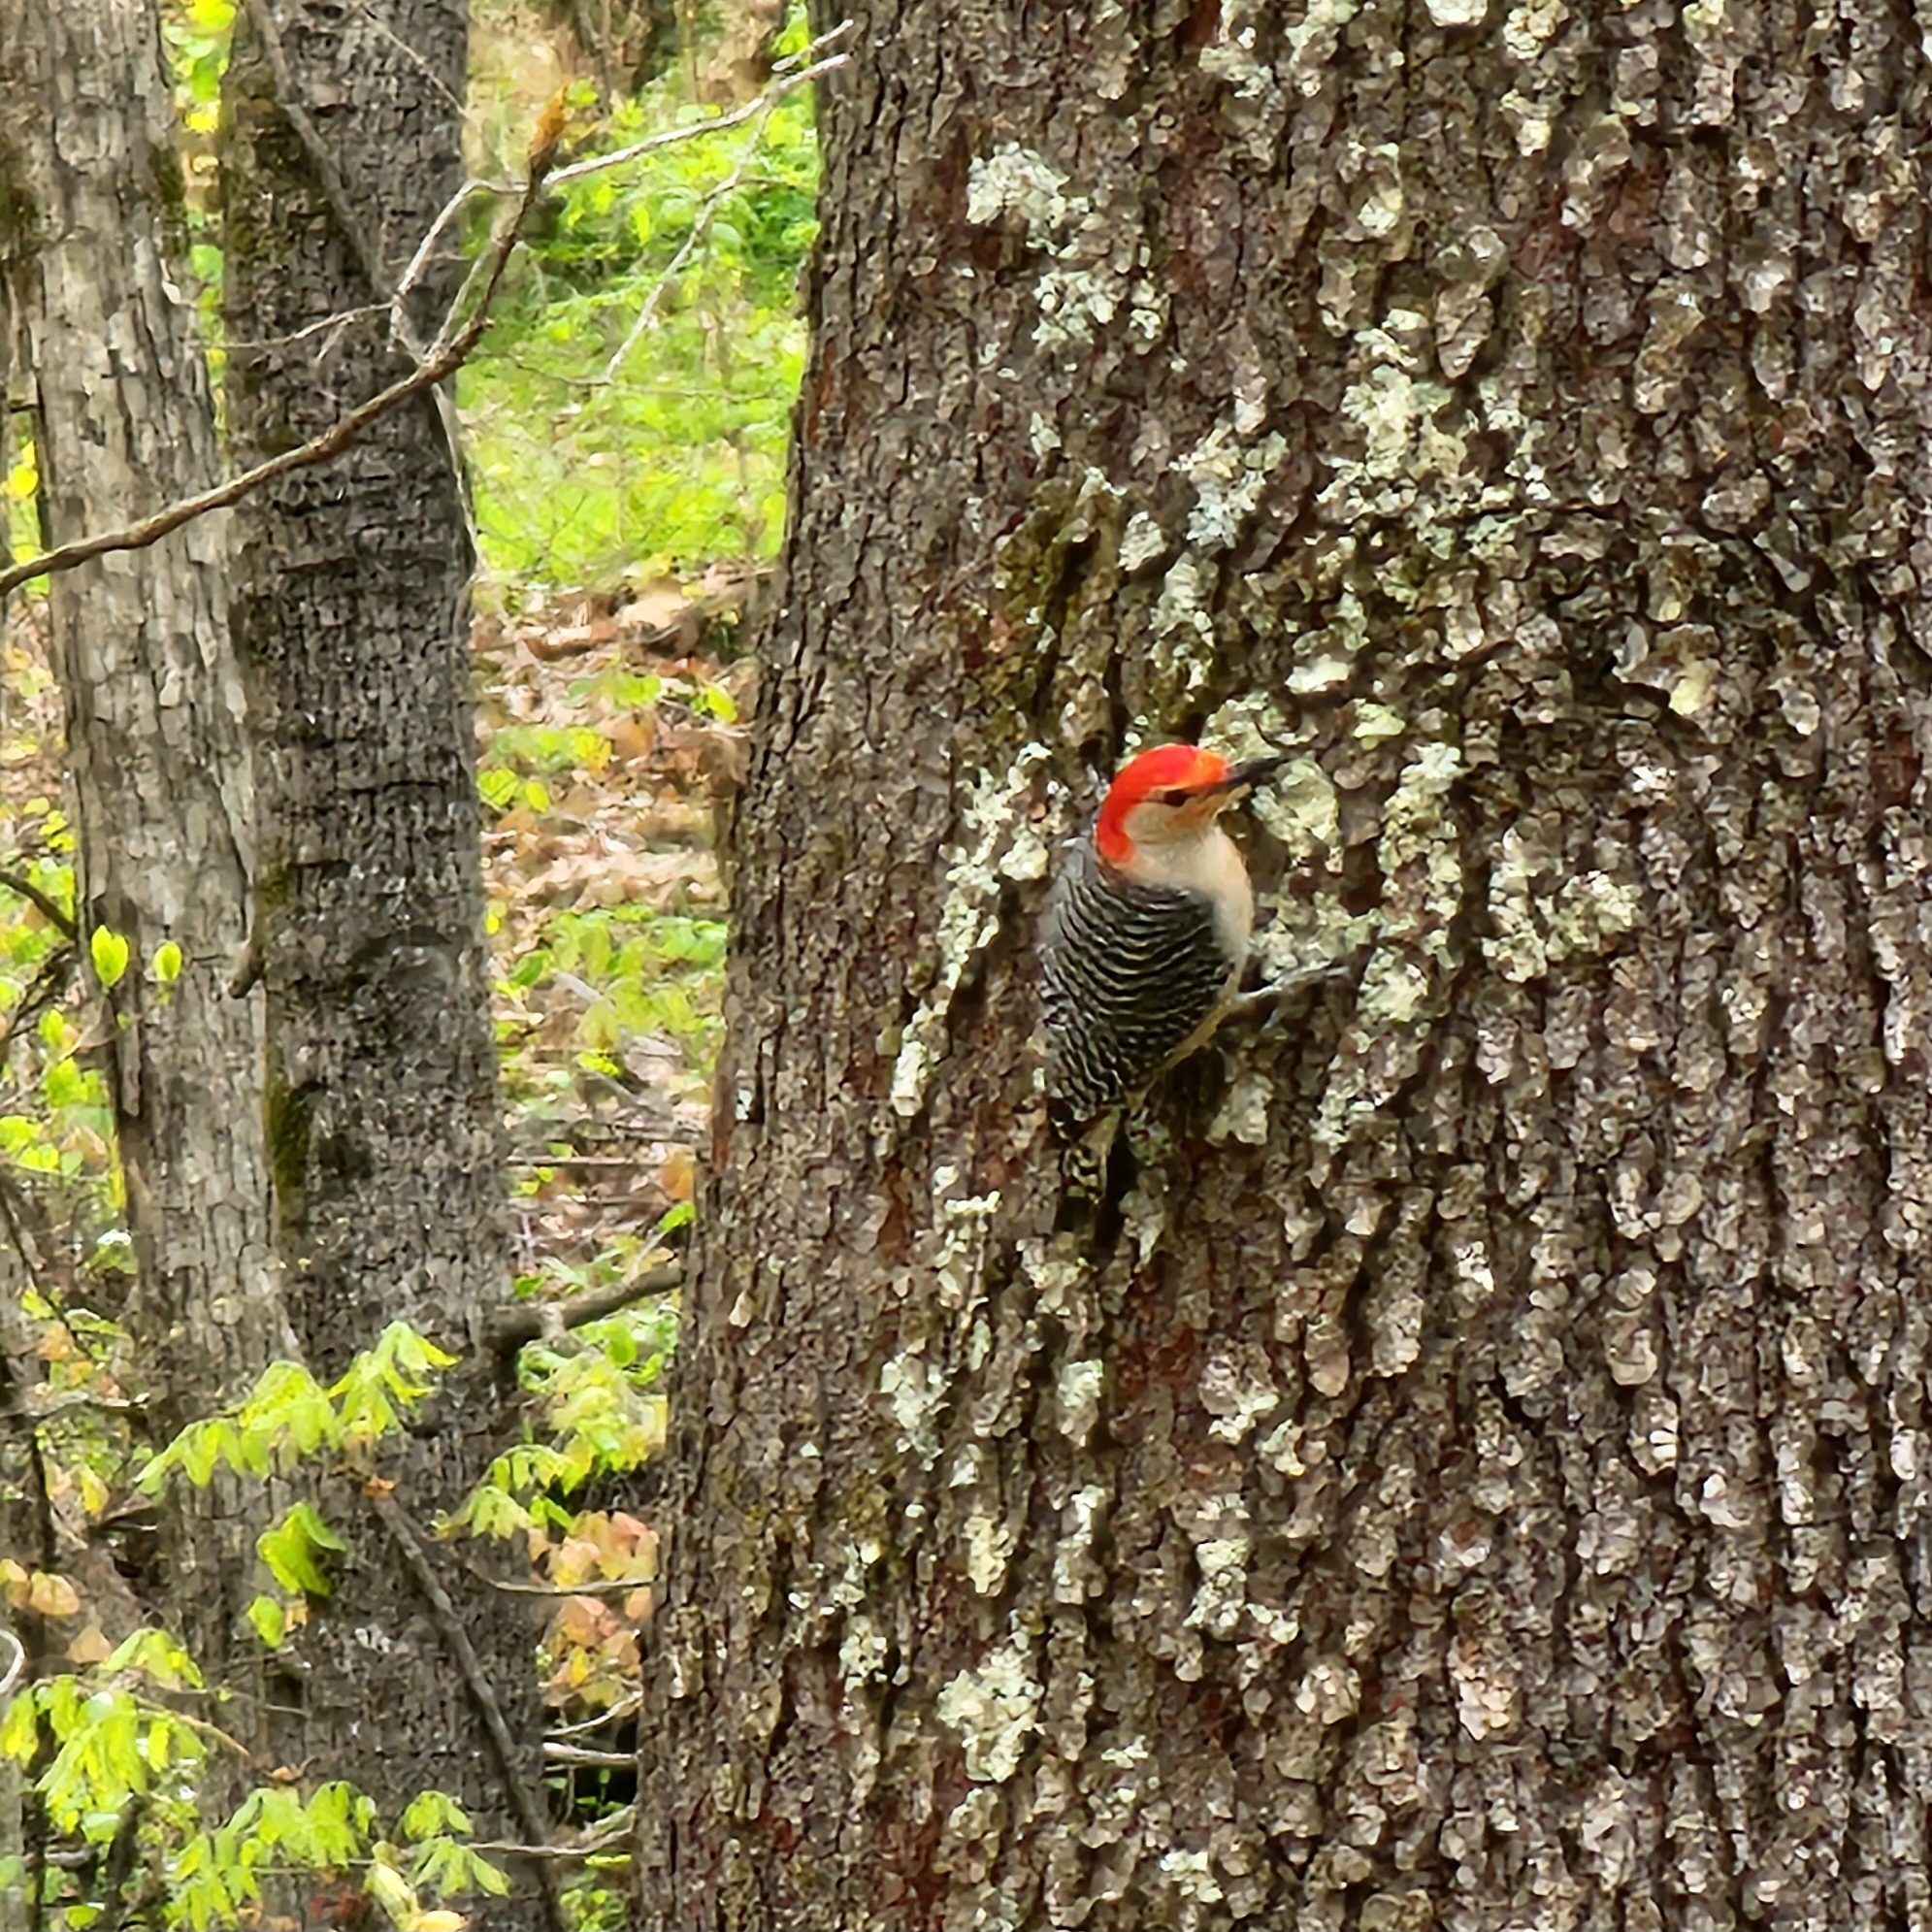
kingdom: Animalia
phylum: Chordata
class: Aves
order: Piciformes
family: Picidae
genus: Melanerpes
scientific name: Melanerpes carolinus
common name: Red-bellied woodpecker
